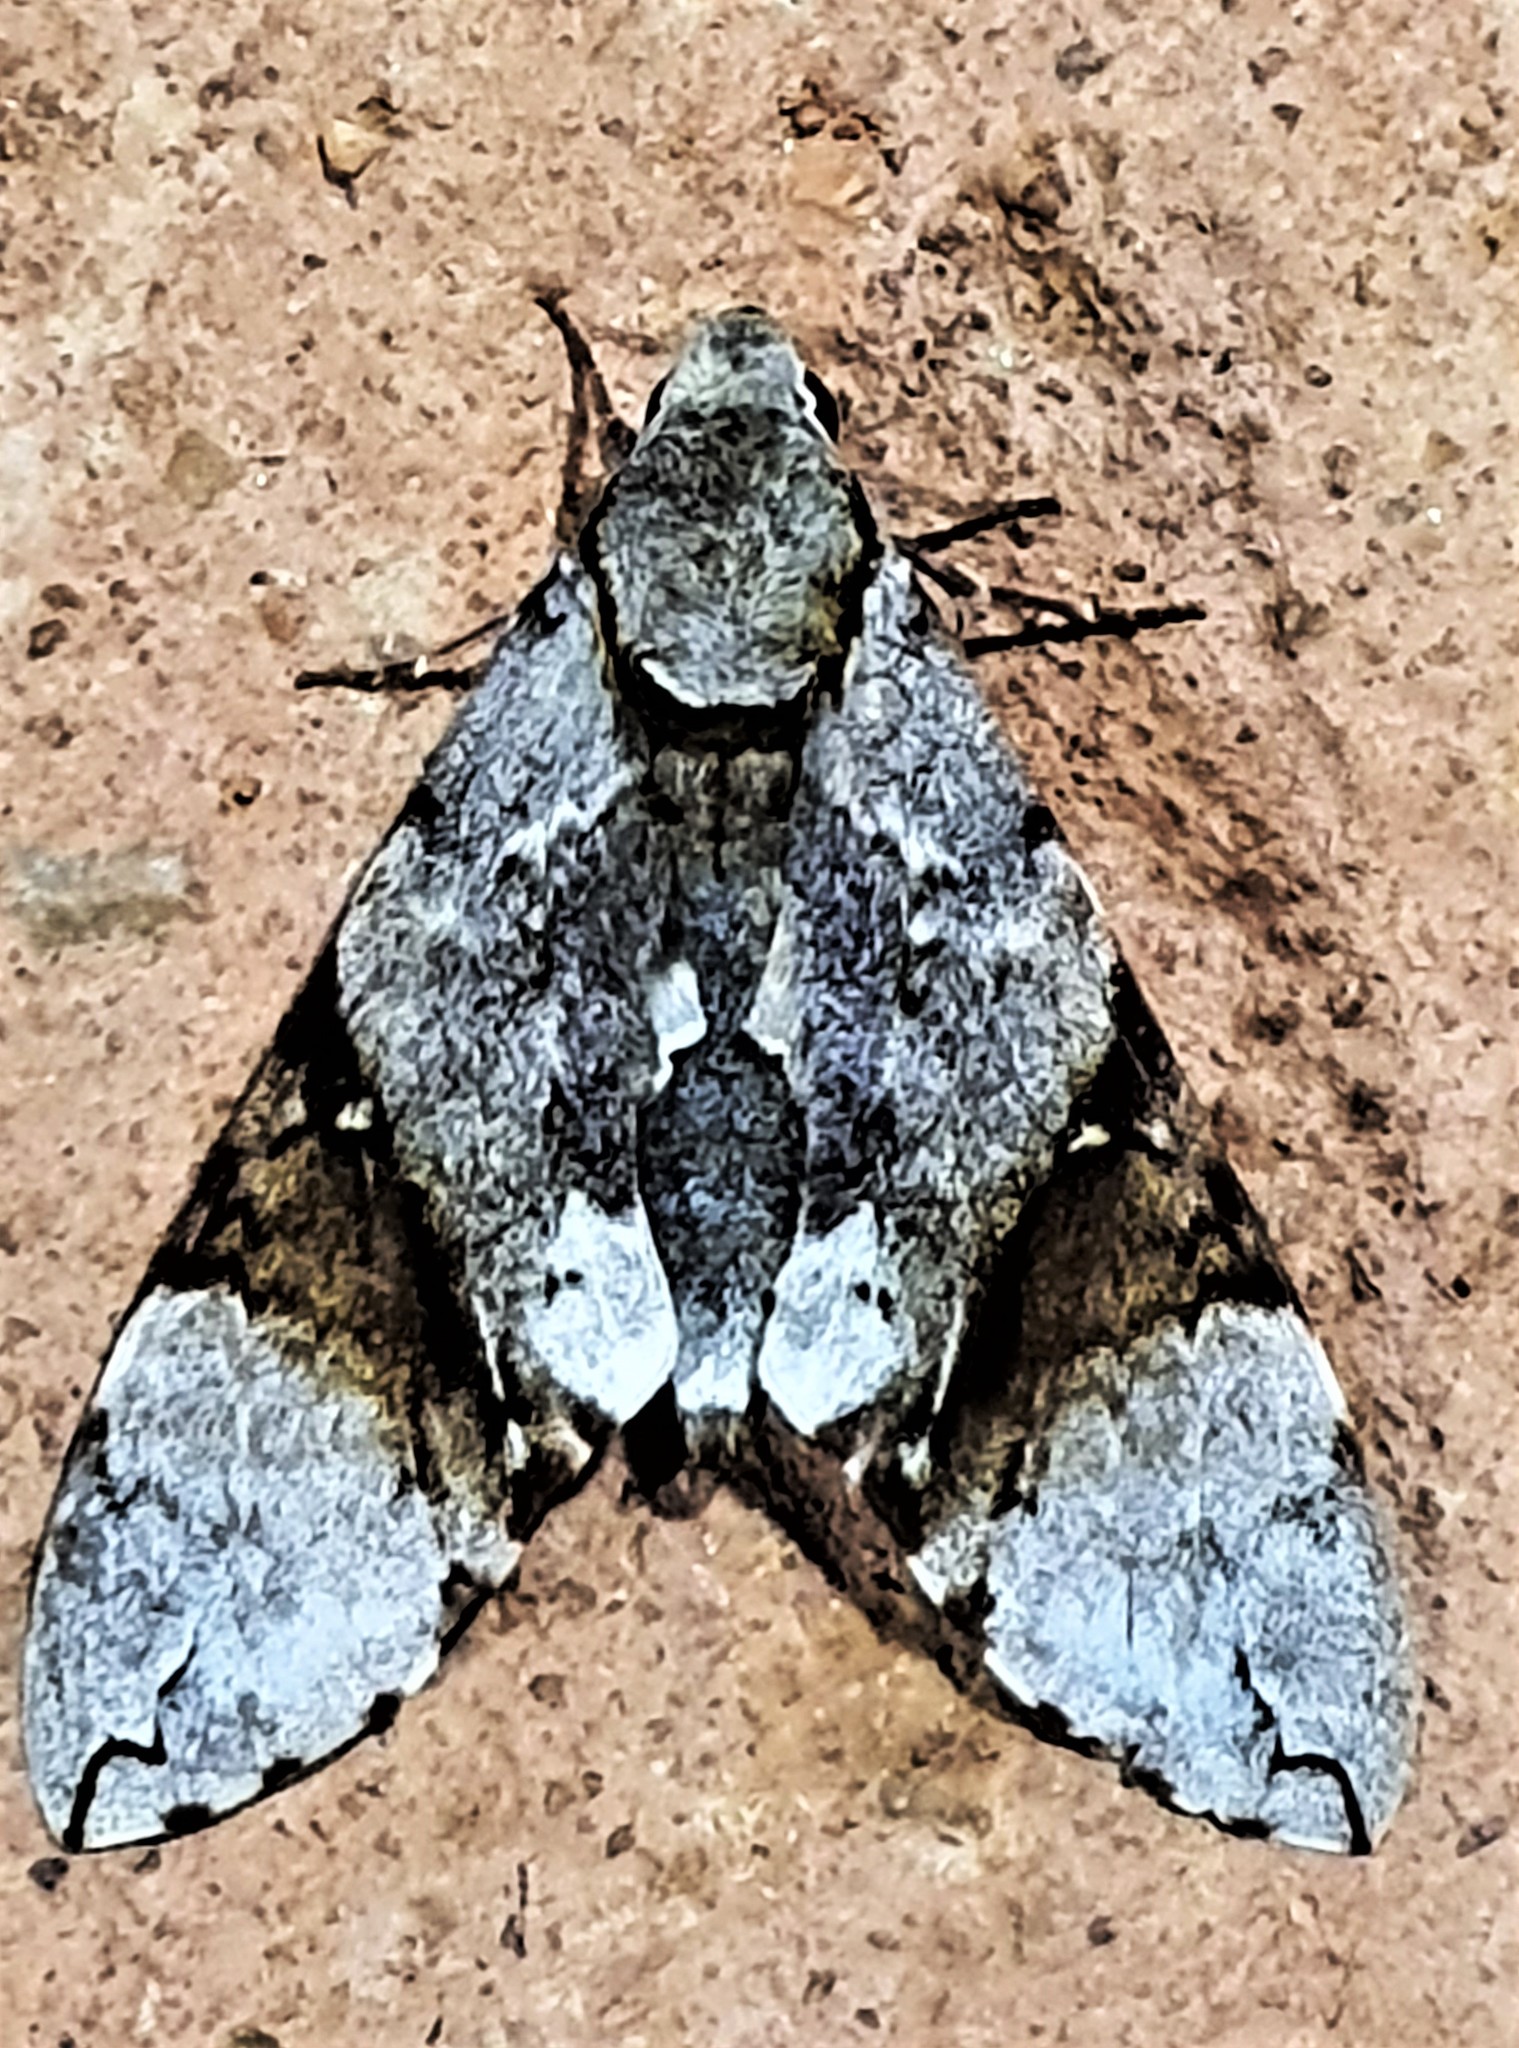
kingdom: Animalia
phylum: Arthropoda
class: Insecta
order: Lepidoptera
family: Sphingidae
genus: Manduca
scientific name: Manduca lefeburii
